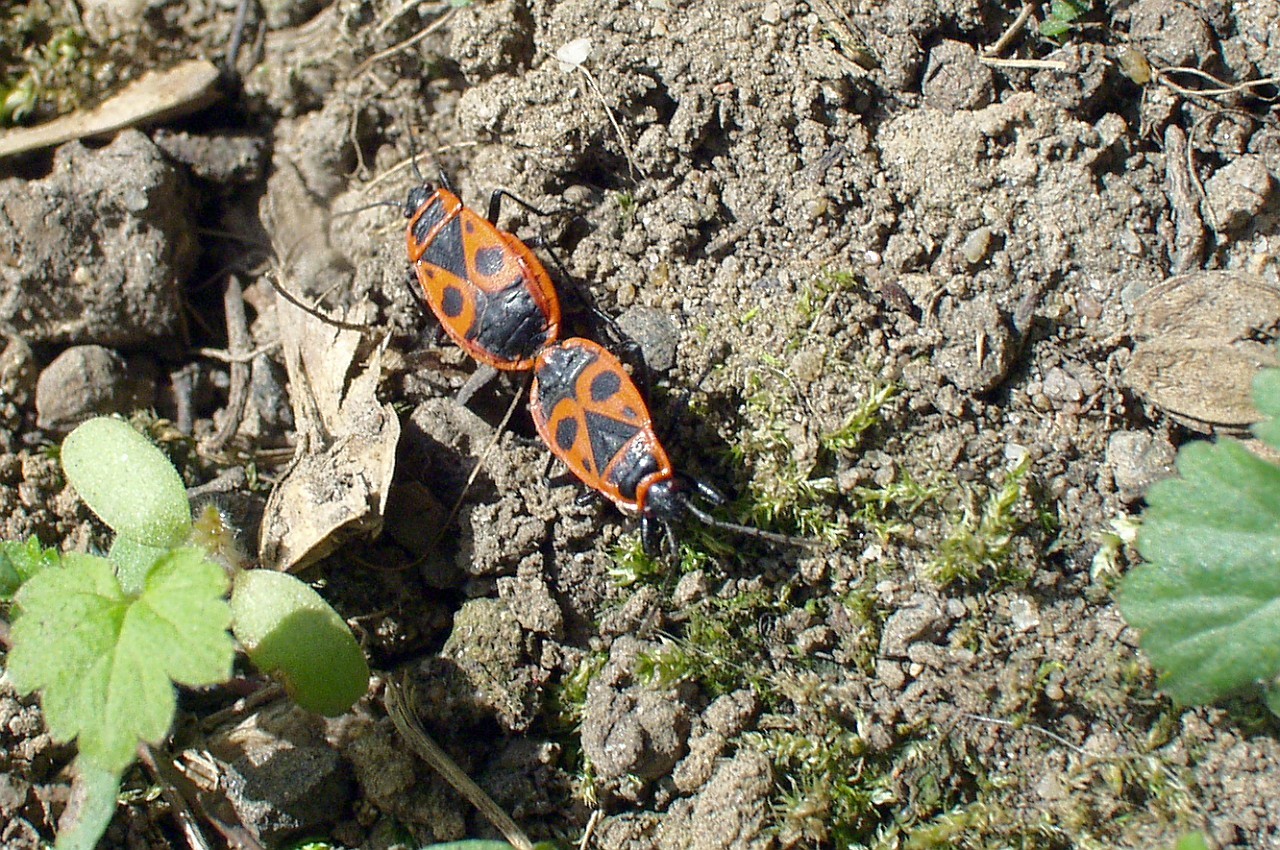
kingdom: Animalia
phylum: Arthropoda
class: Insecta
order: Hemiptera
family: Pyrrhocoridae
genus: Pyrrhocoris
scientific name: Pyrrhocoris apterus
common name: Firebug
